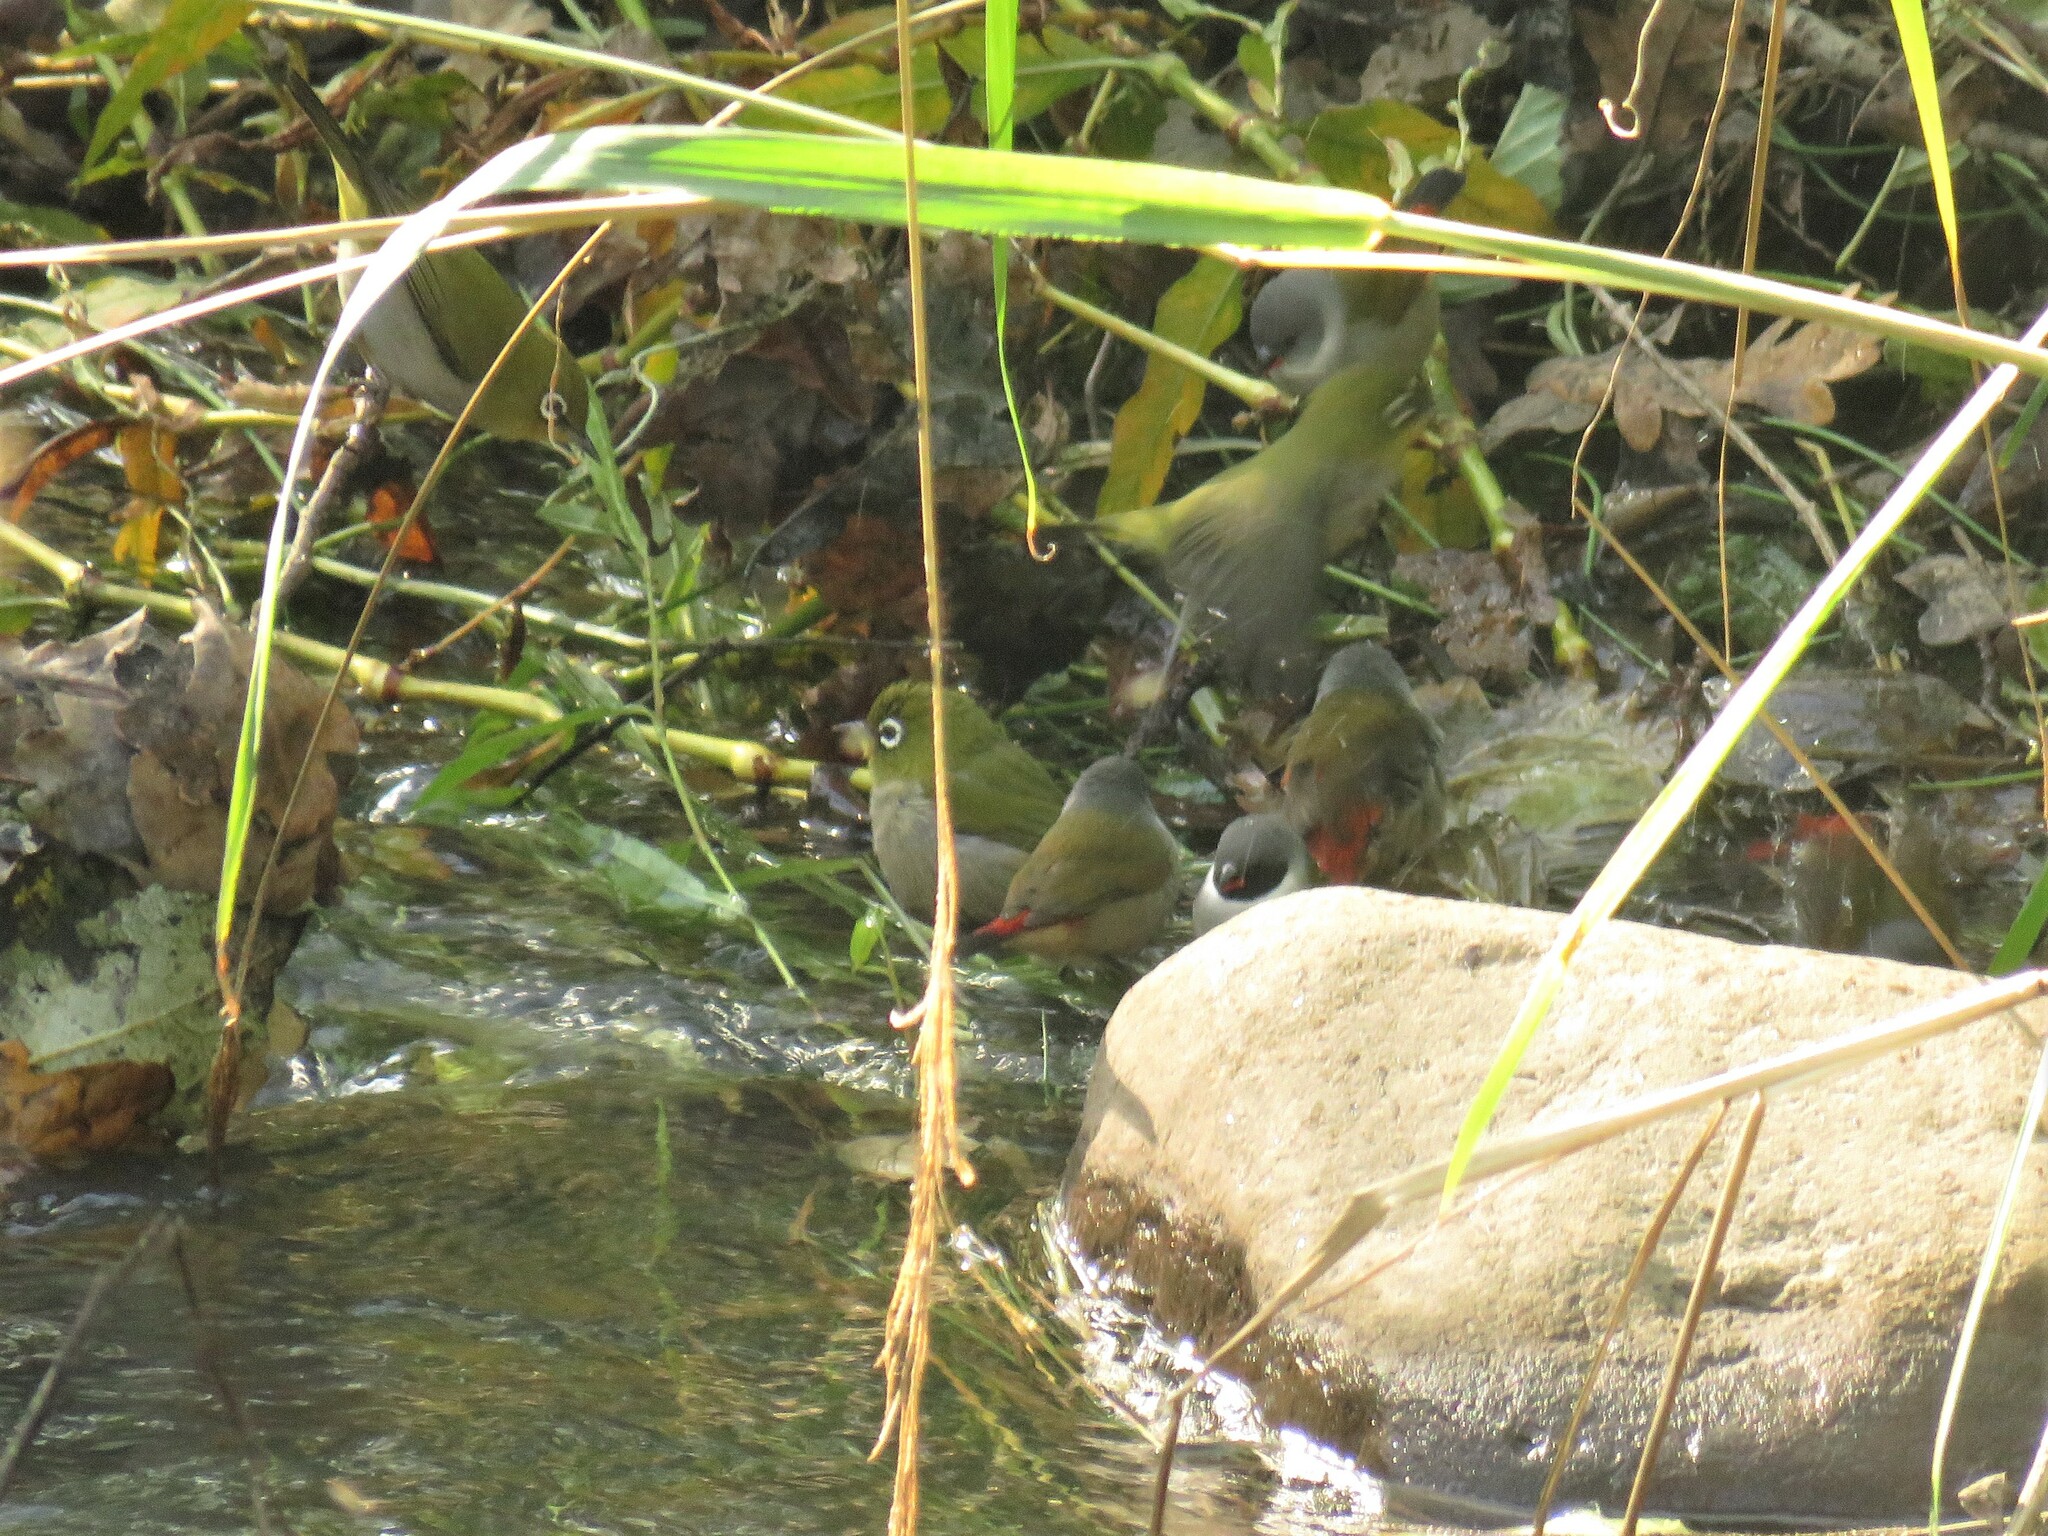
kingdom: Animalia
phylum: Chordata
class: Aves
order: Passeriformes
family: Zosteropidae
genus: Zosterops
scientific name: Zosterops virens
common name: Cape white-eye
